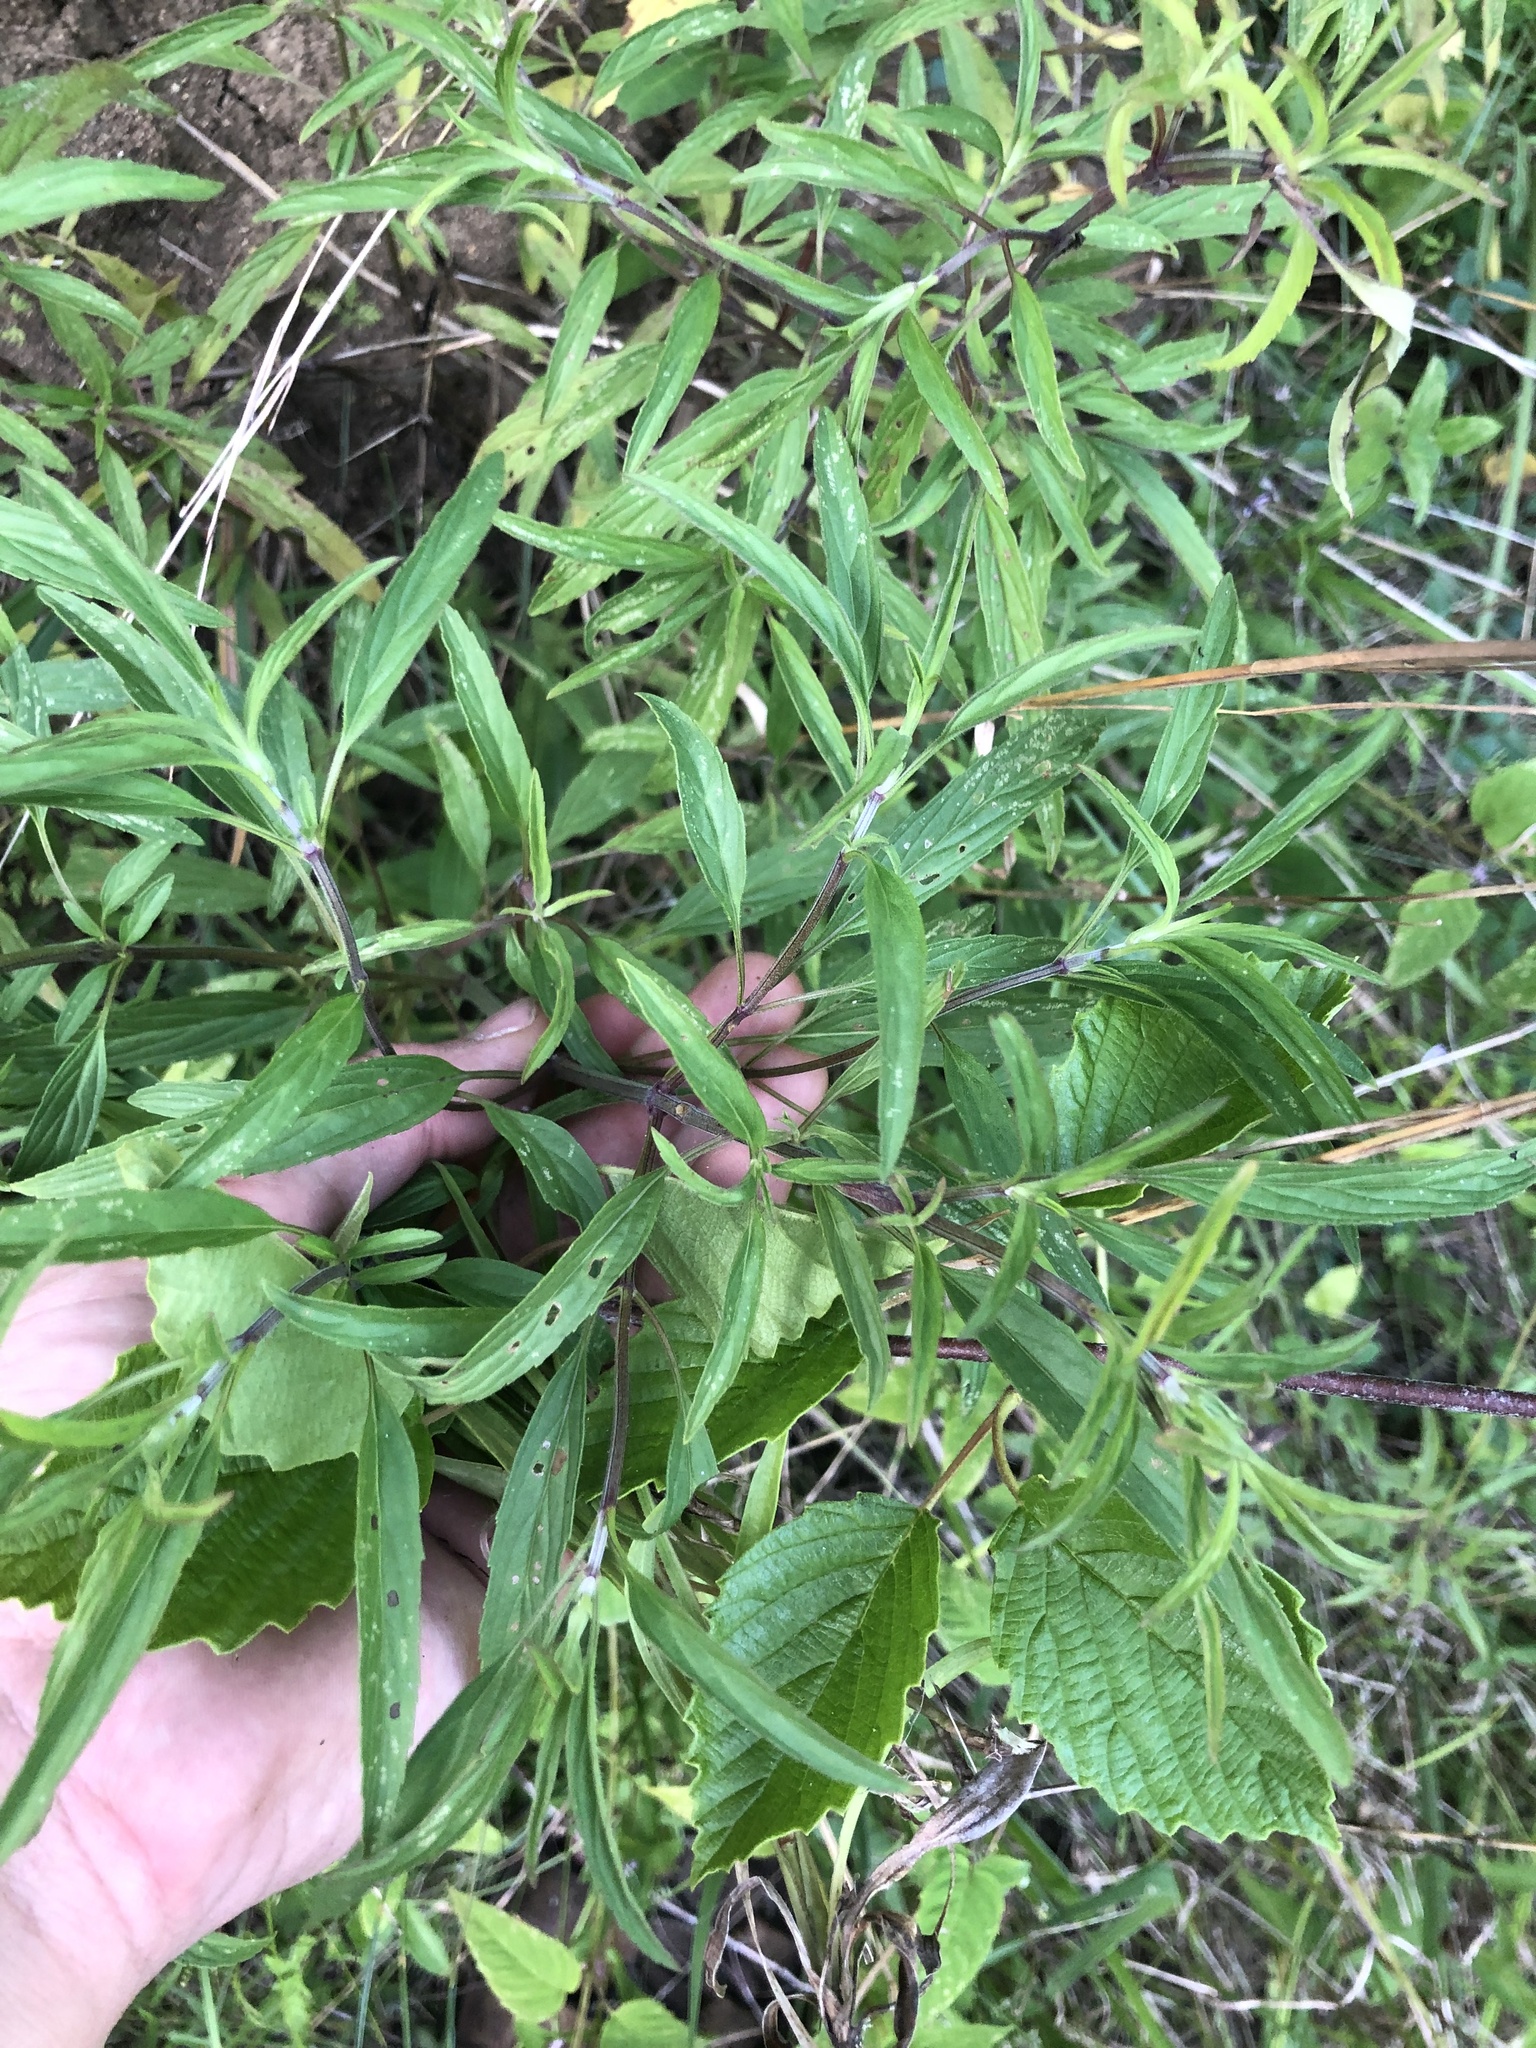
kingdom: Plantae
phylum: Tracheophyta
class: Magnoliopsida
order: Lamiales
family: Lamiaceae
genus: Monarda
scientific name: Monarda punctata
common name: Dotted monarda
